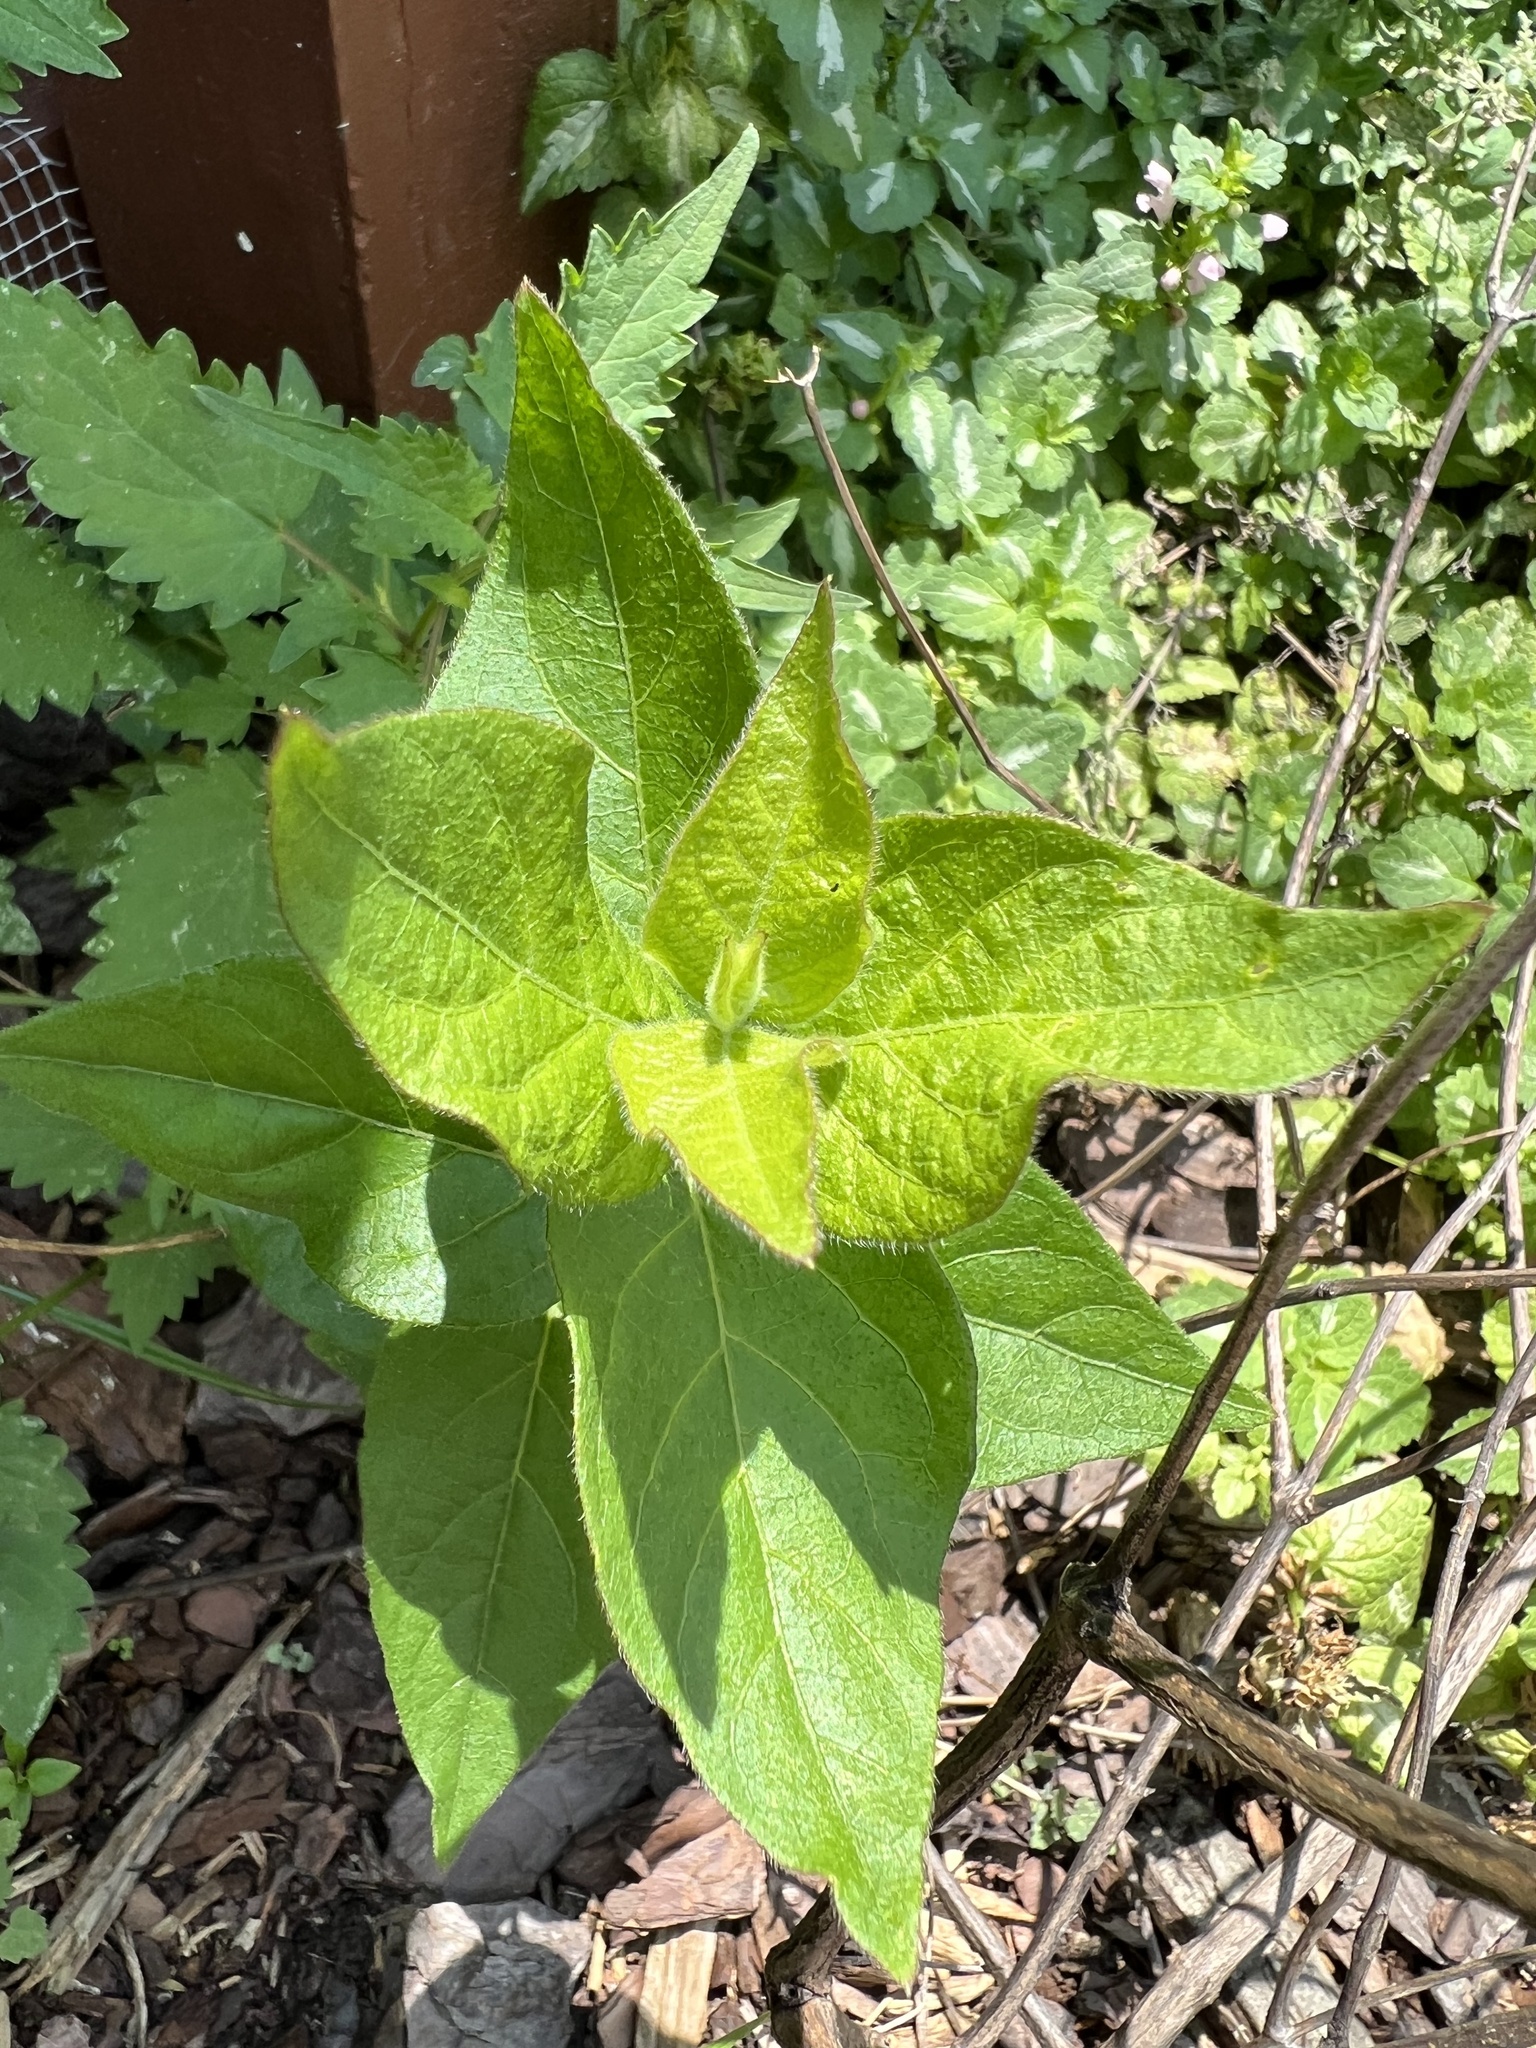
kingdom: Plantae
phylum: Tracheophyta
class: Magnoliopsida
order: Dipsacales
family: Caprifoliaceae
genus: Lonicera
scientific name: Lonicera maackii
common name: Amur honeysuckle
